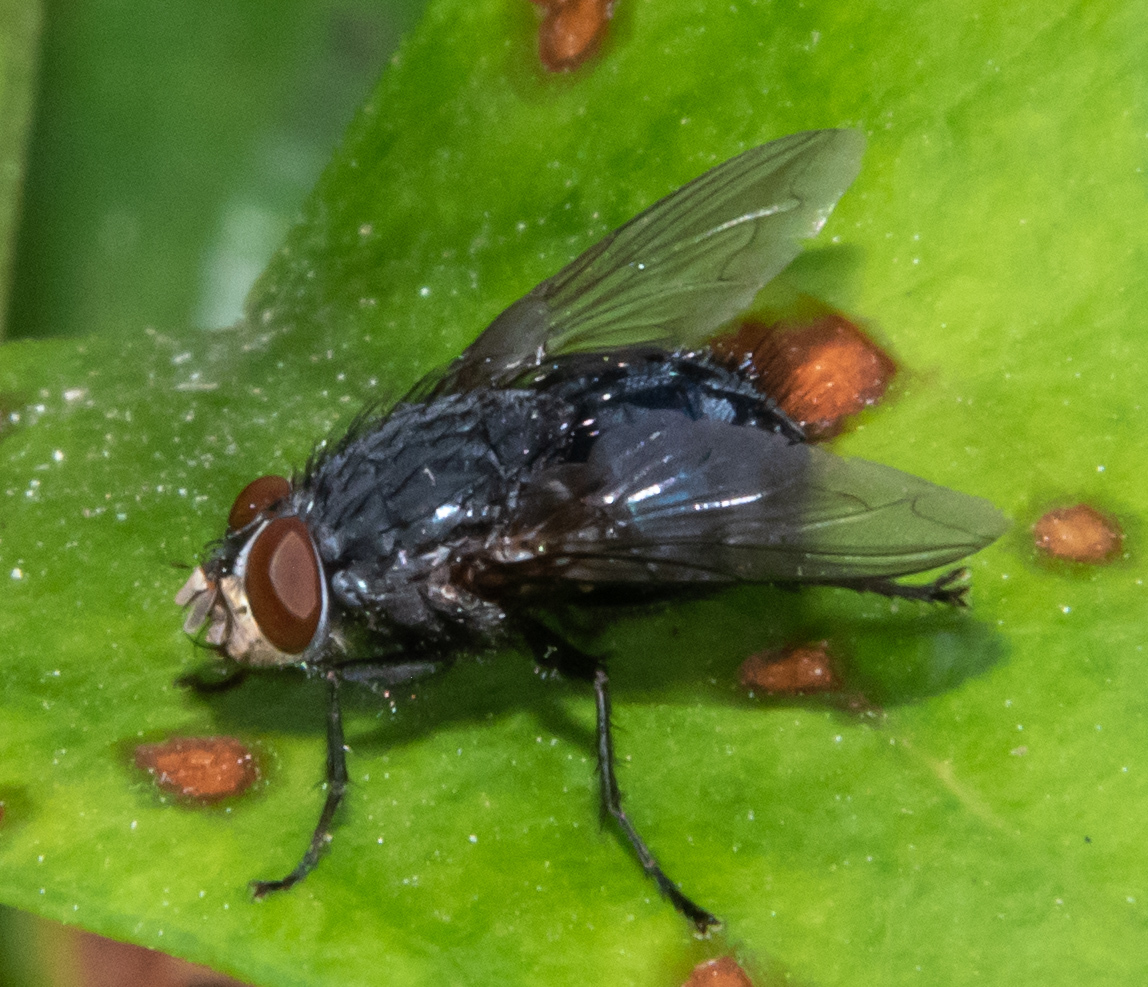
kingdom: Animalia
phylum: Arthropoda
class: Insecta
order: Diptera
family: Calliphoridae
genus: Calliphora
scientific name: Calliphora vicina
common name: Common blow flie
